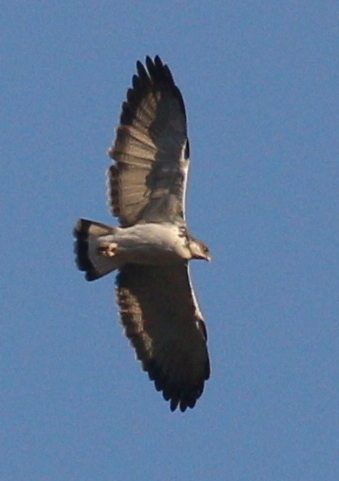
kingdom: Animalia
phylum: Chordata
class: Aves
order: Accipitriformes
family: Accipitridae
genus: Buteo
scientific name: Buteo polyosoma
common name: Variable hawk
